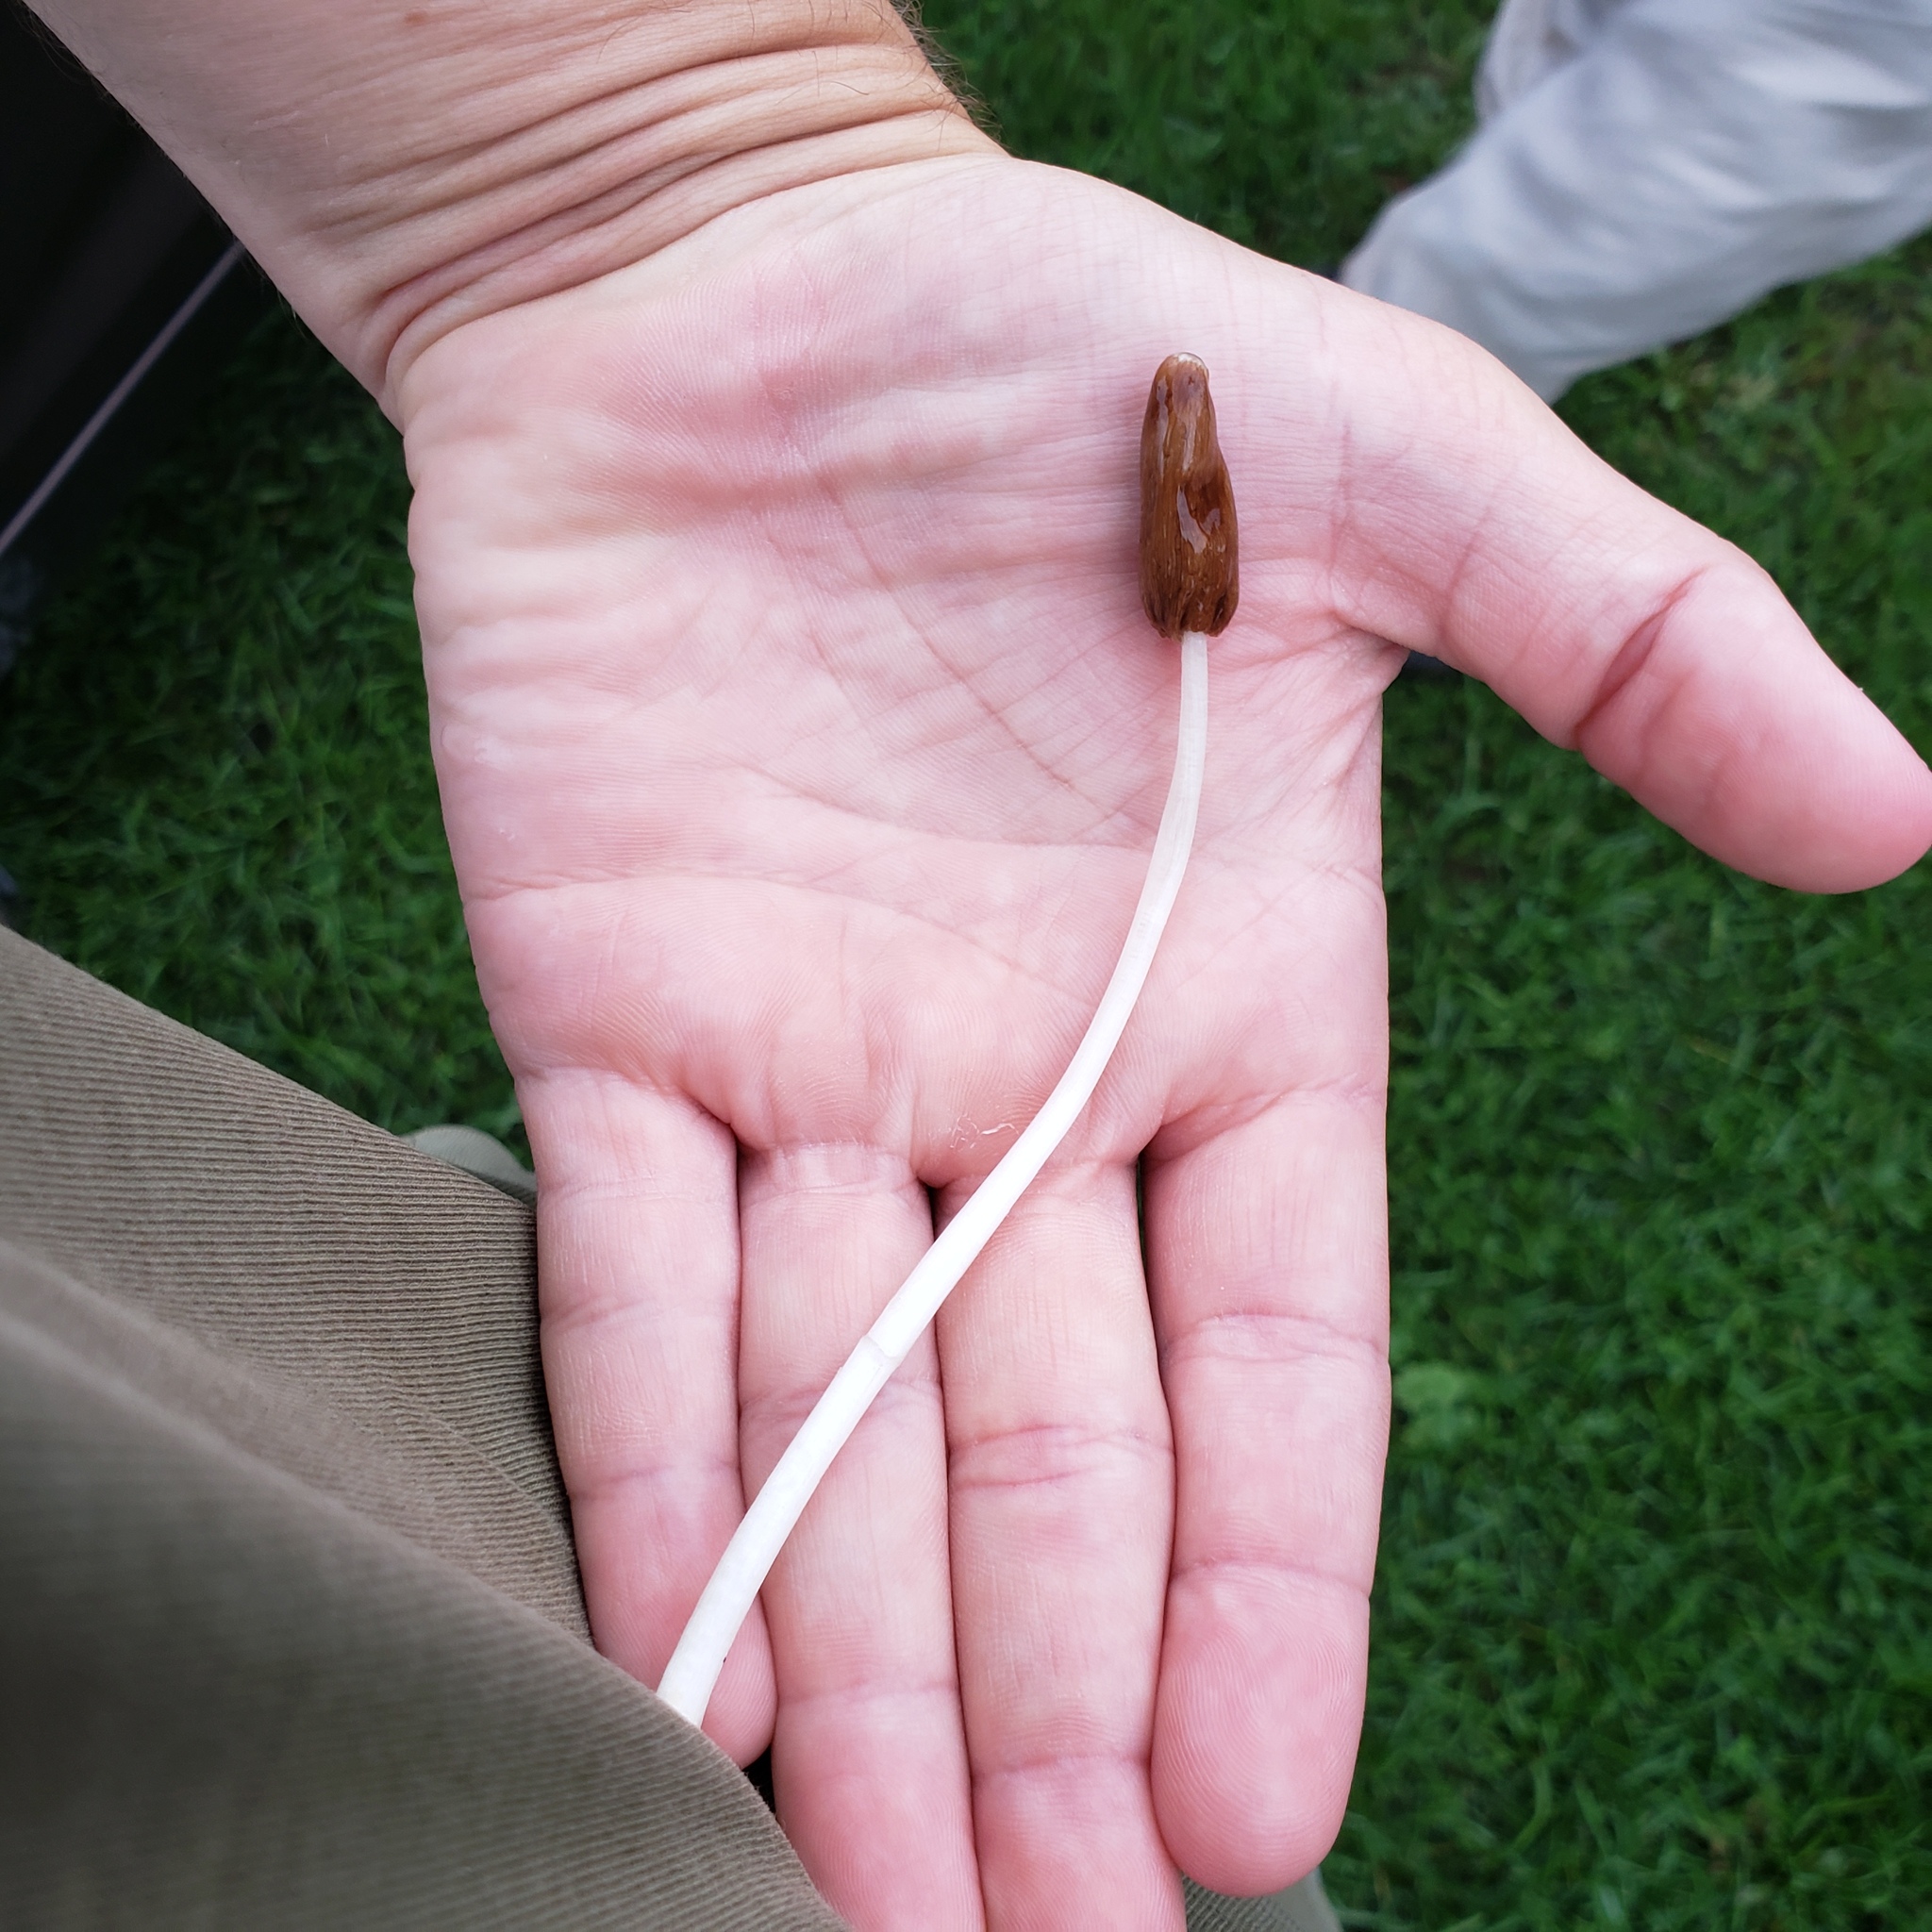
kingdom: Fungi
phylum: Basidiomycota
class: Agaricomycetes
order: Agaricales
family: Bolbitiaceae
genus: Conocybe
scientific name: Conocybe deliquescens
